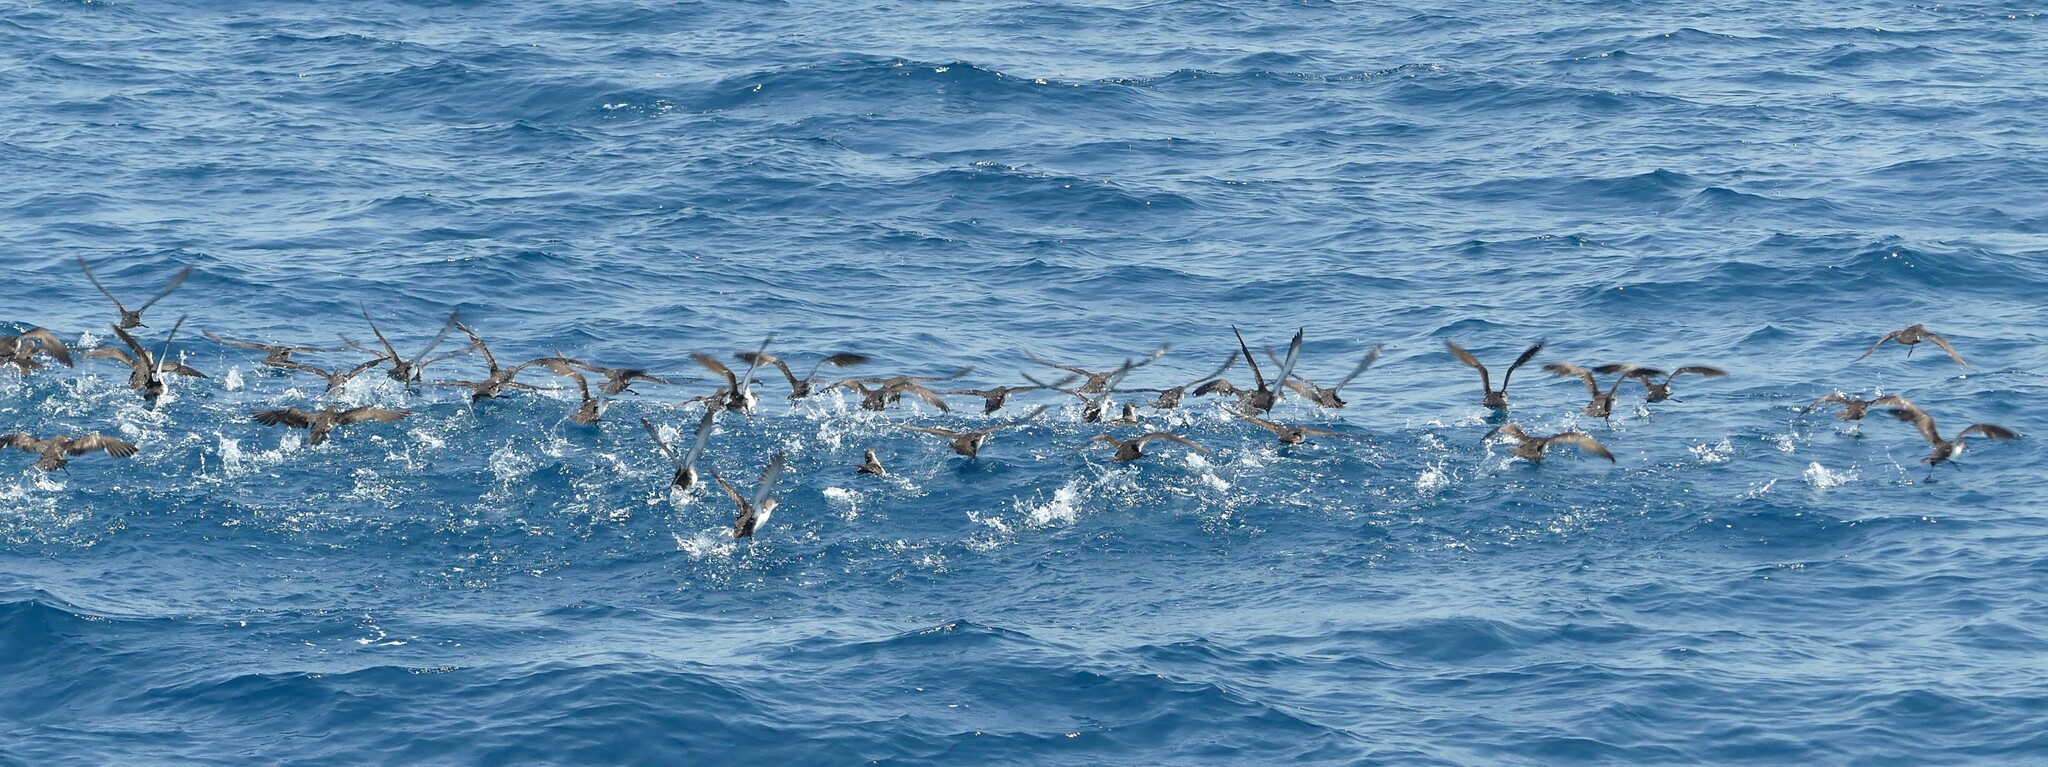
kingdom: Animalia
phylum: Chordata
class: Aves
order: Procellariiformes
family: Procellariidae
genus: Puffinus
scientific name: Puffinus yelkouan
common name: Yelkouan shearwater
